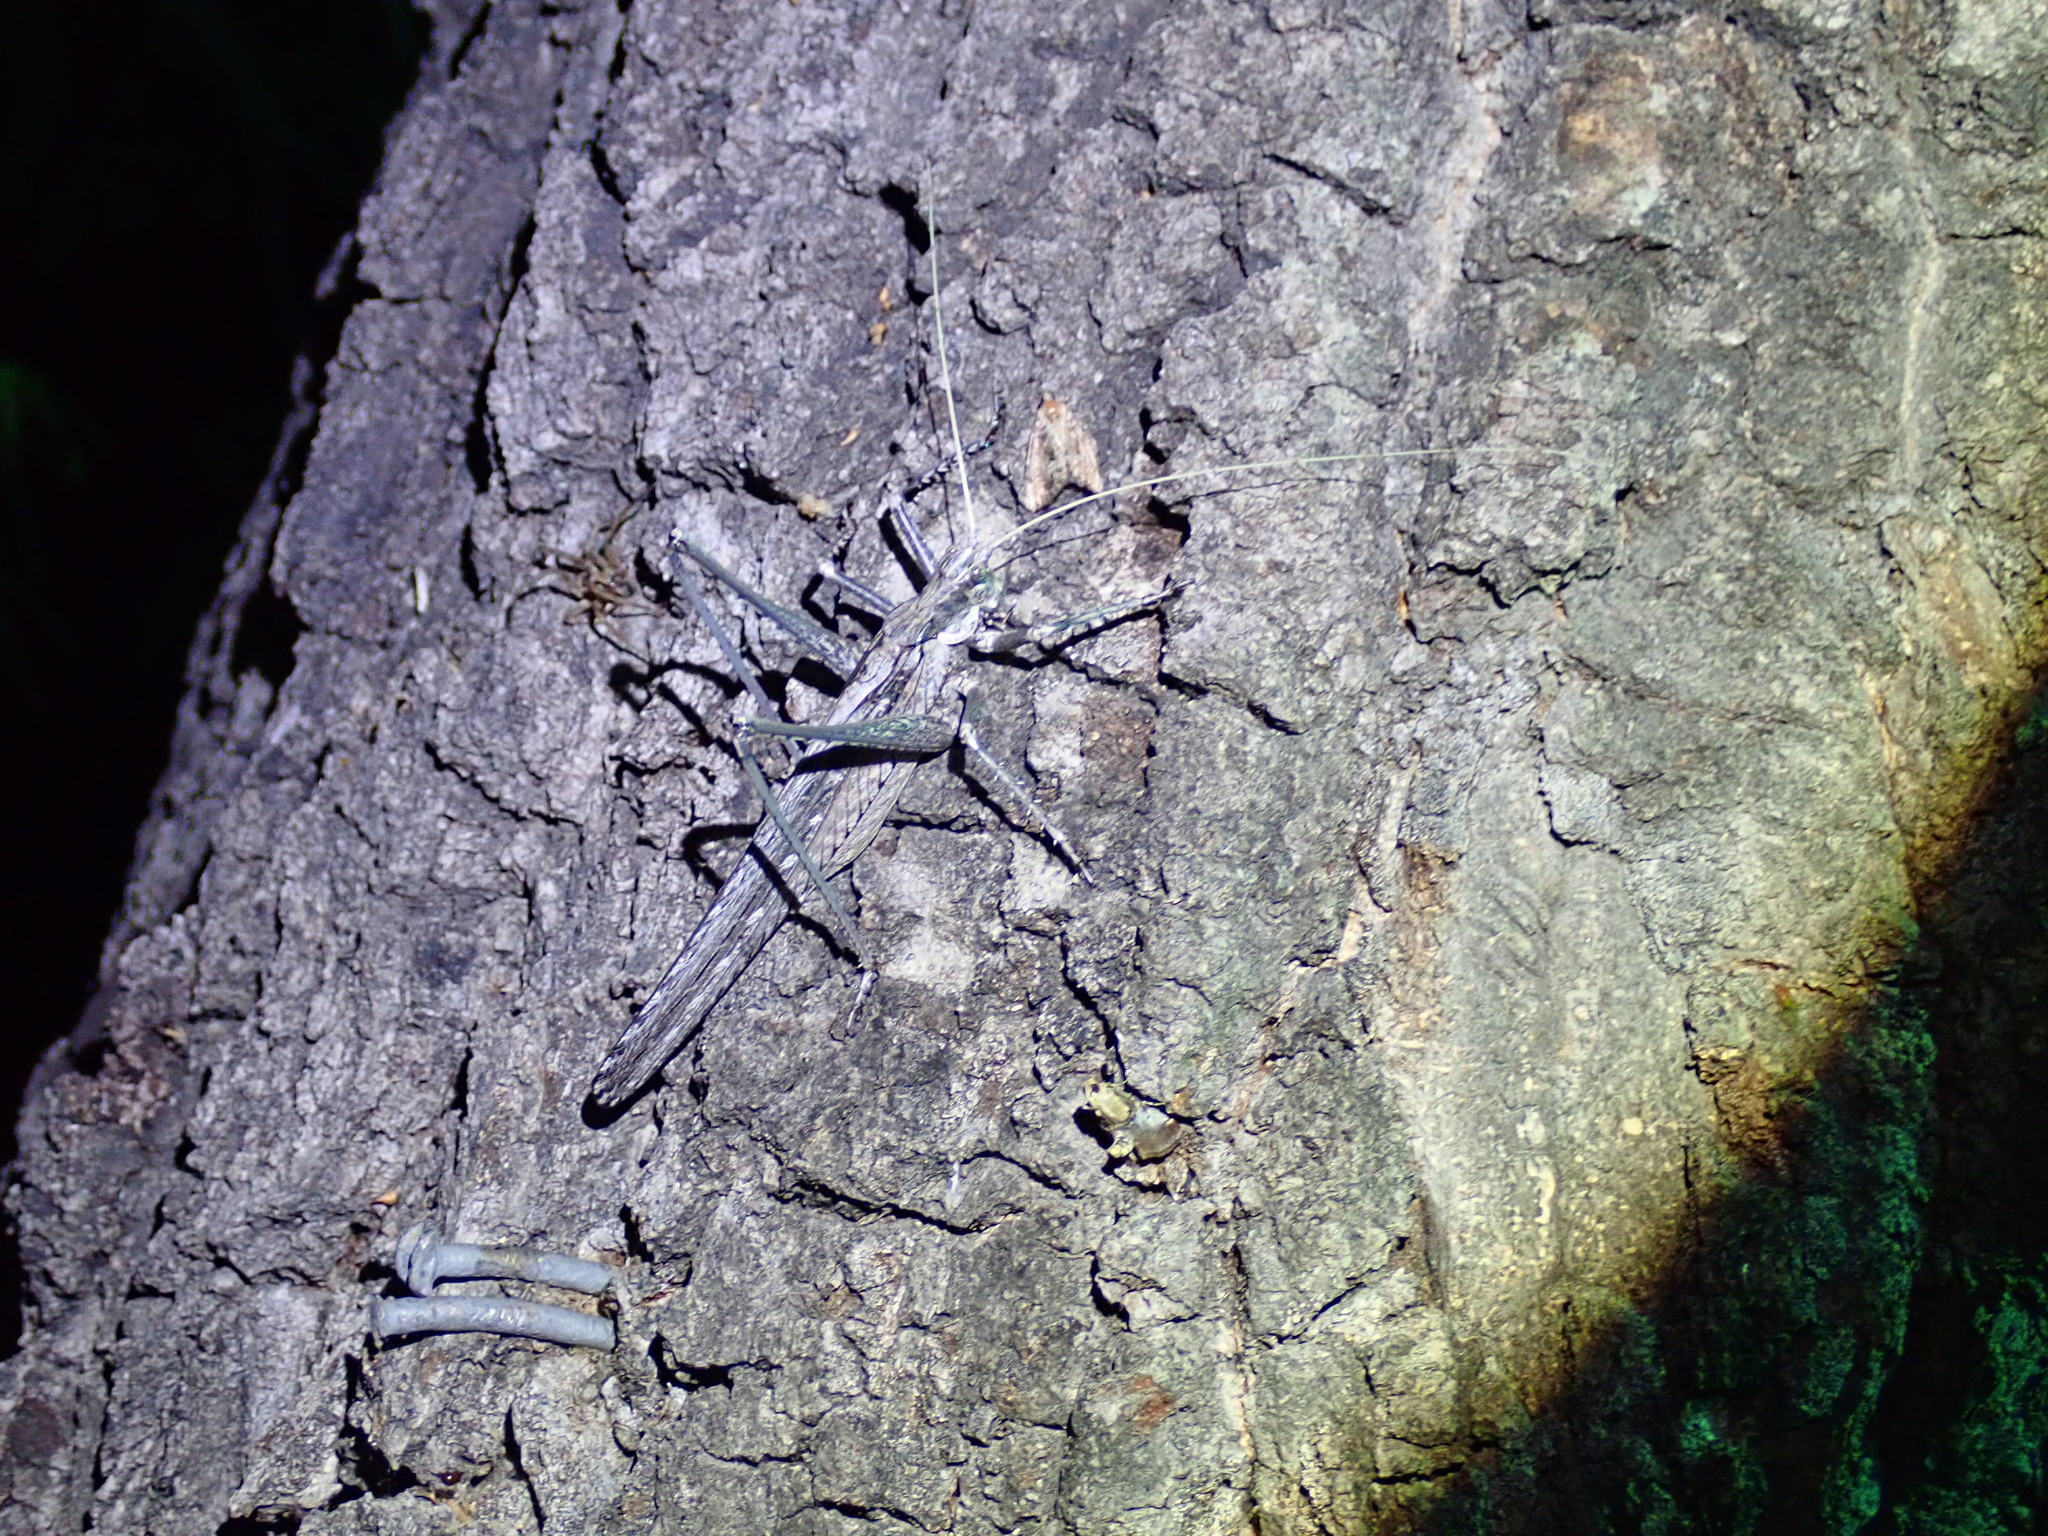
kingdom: Animalia
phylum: Arthropoda
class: Insecta
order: Orthoptera
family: Tettigoniidae
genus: Capnobotes
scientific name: Capnobotes fuliginosus
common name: Sooty longwing
